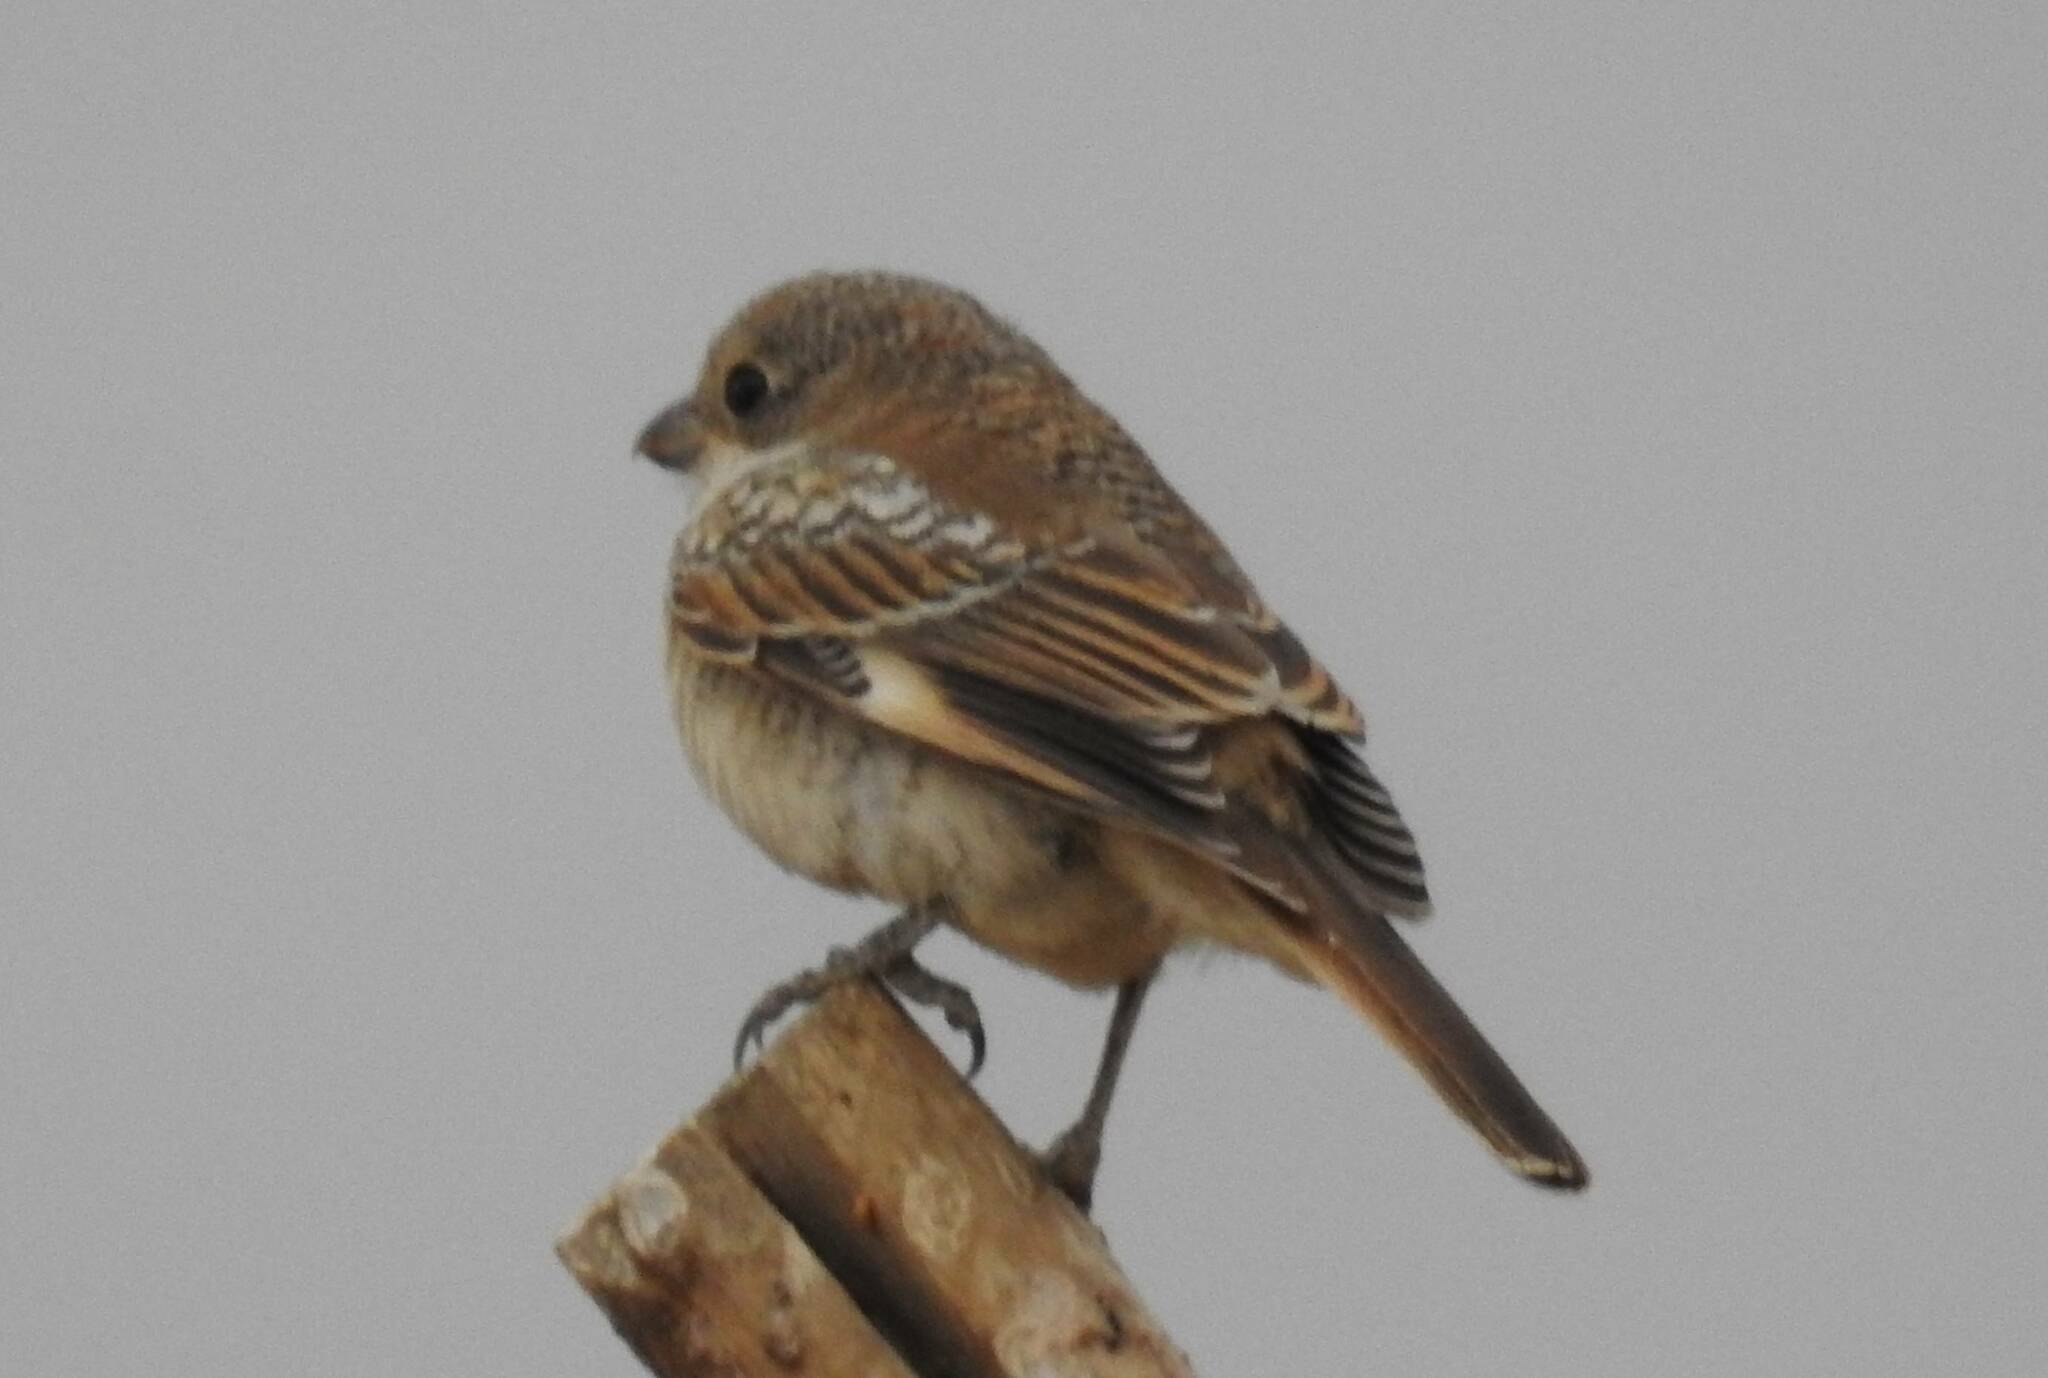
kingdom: Animalia
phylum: Chordata
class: Aves
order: Passeriformes
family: Laniidae
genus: Lanius
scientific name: Lanius senator
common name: Woodchat shrike
